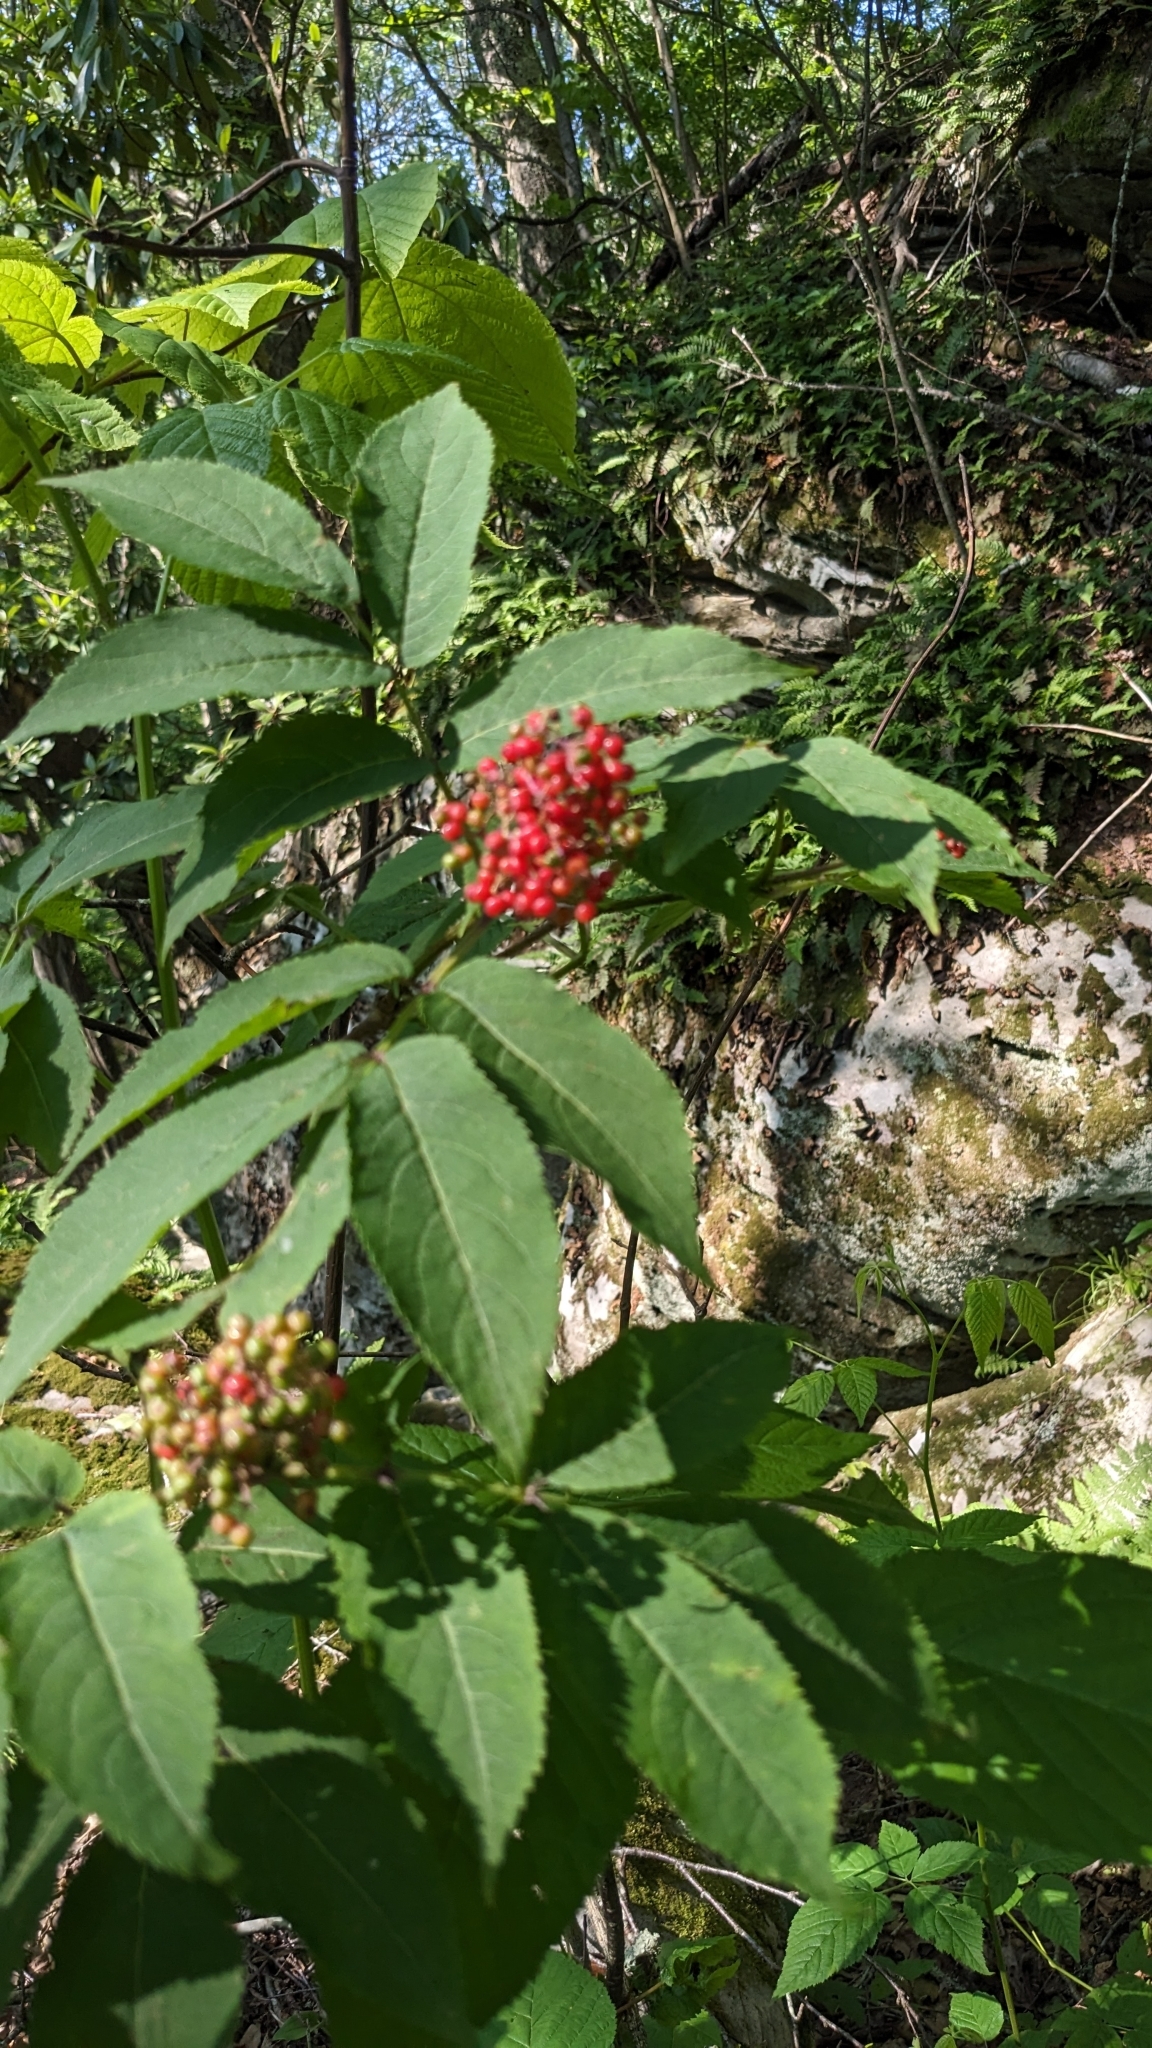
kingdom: Plantae
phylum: Tracheophyta
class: Magnoliopsida
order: Dipsacales
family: Viburnaceae
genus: Sambucus
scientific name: Sambucus racemosa
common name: Red-berried elder
